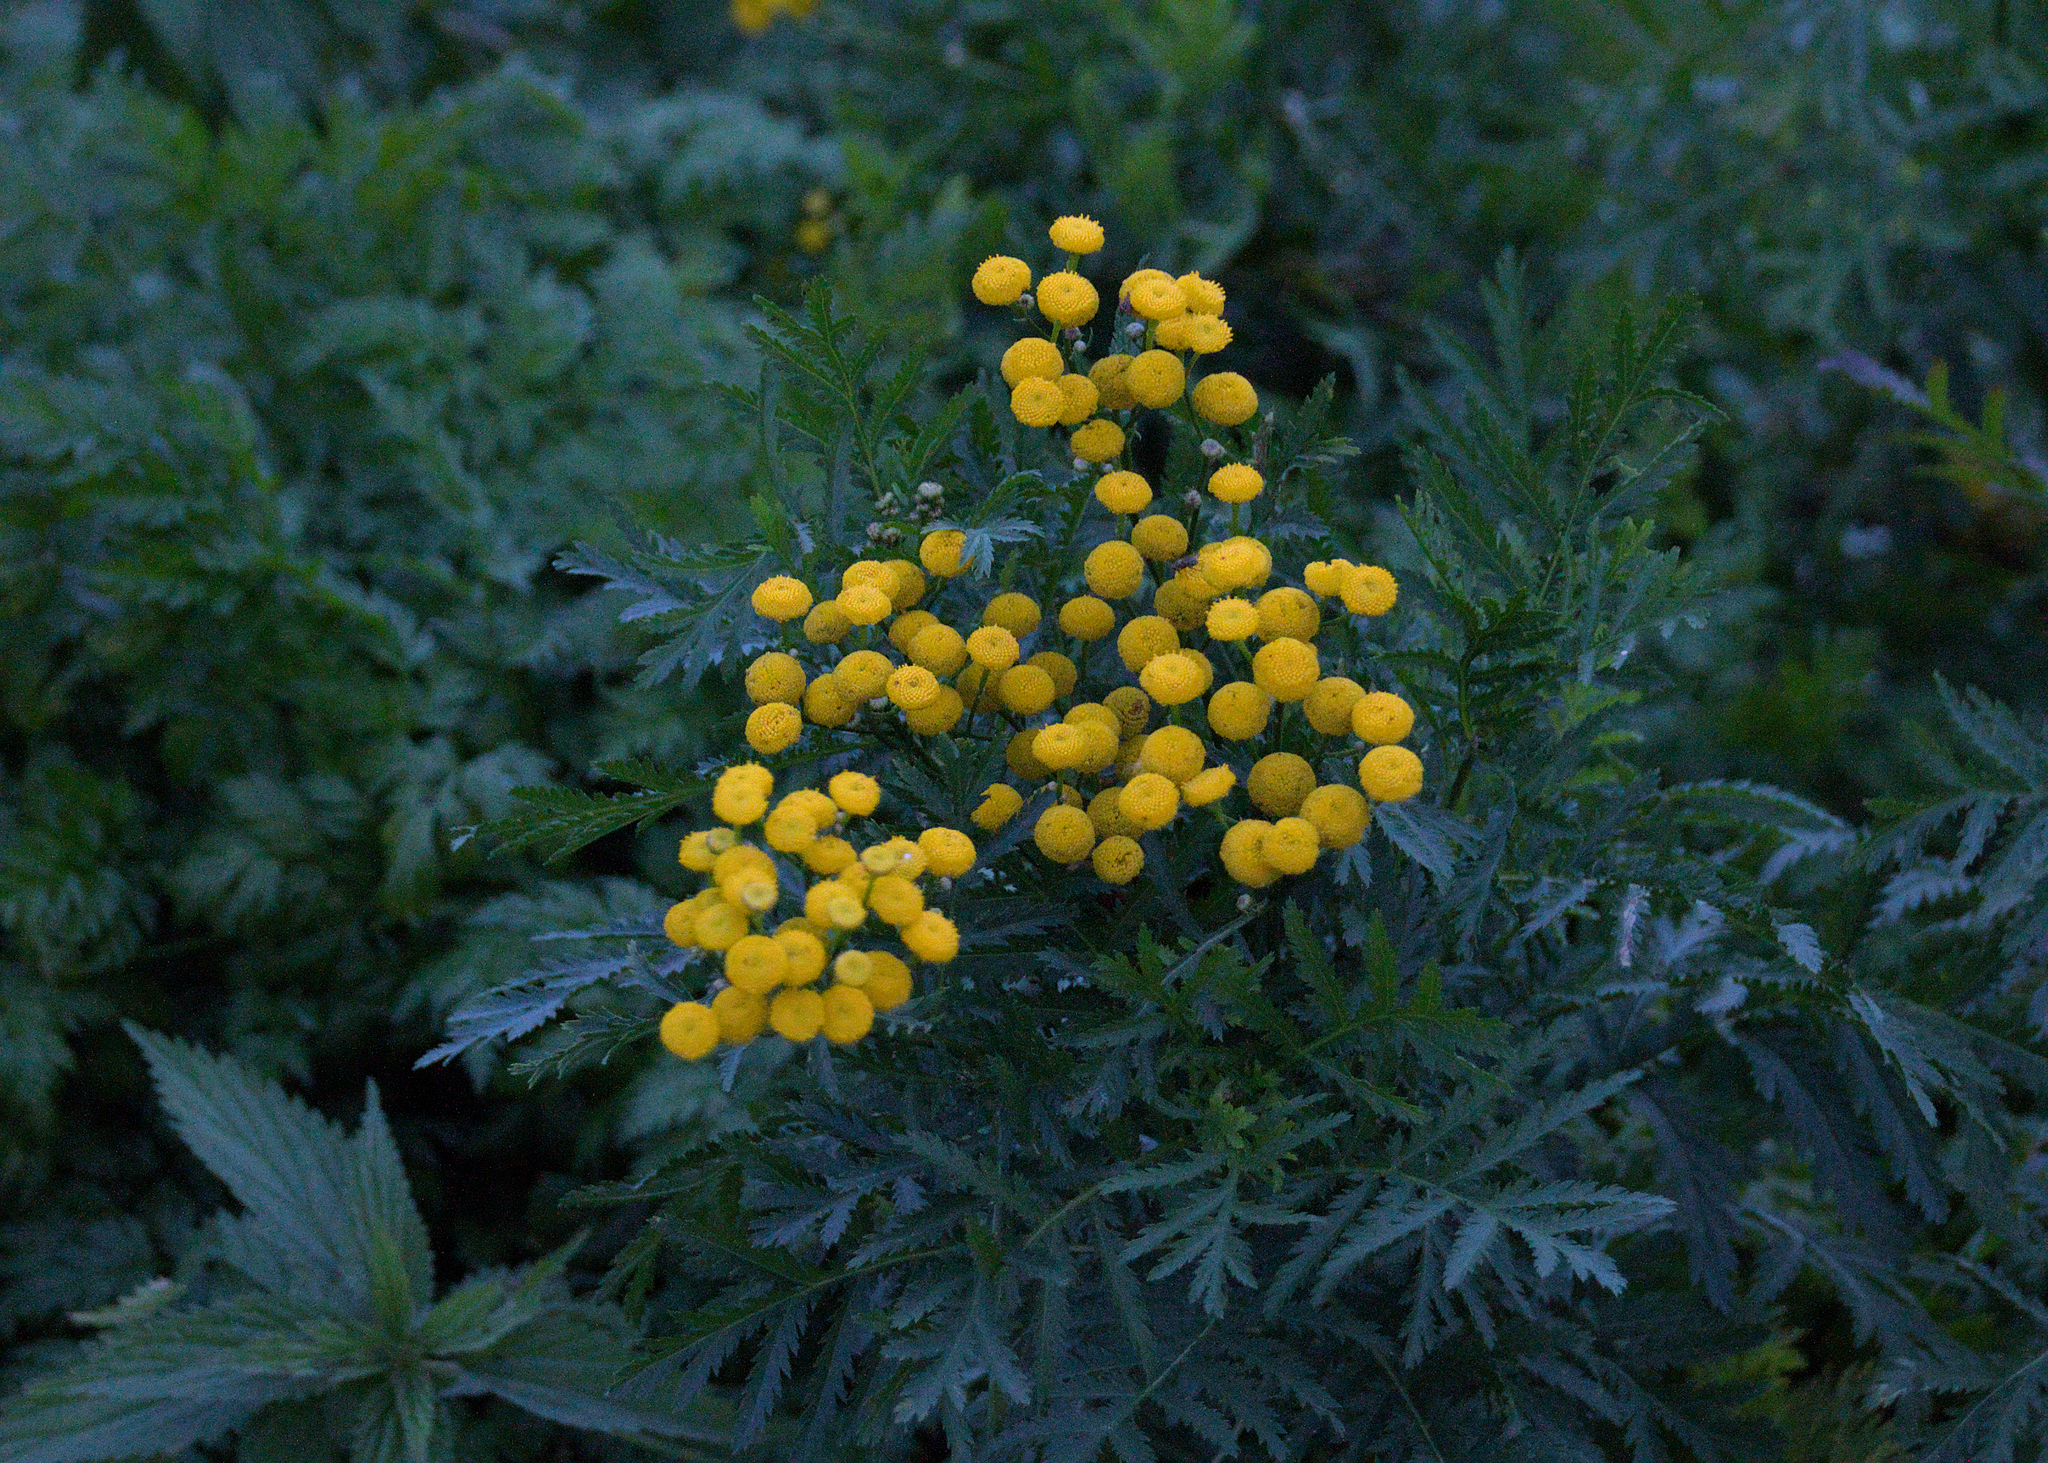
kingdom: Plantae
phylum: Tracheophyta
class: Magnoliopsida
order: Asterales
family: Asteraceae
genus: Tanacetum
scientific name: Tanacetum vulgare
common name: Common tansy
